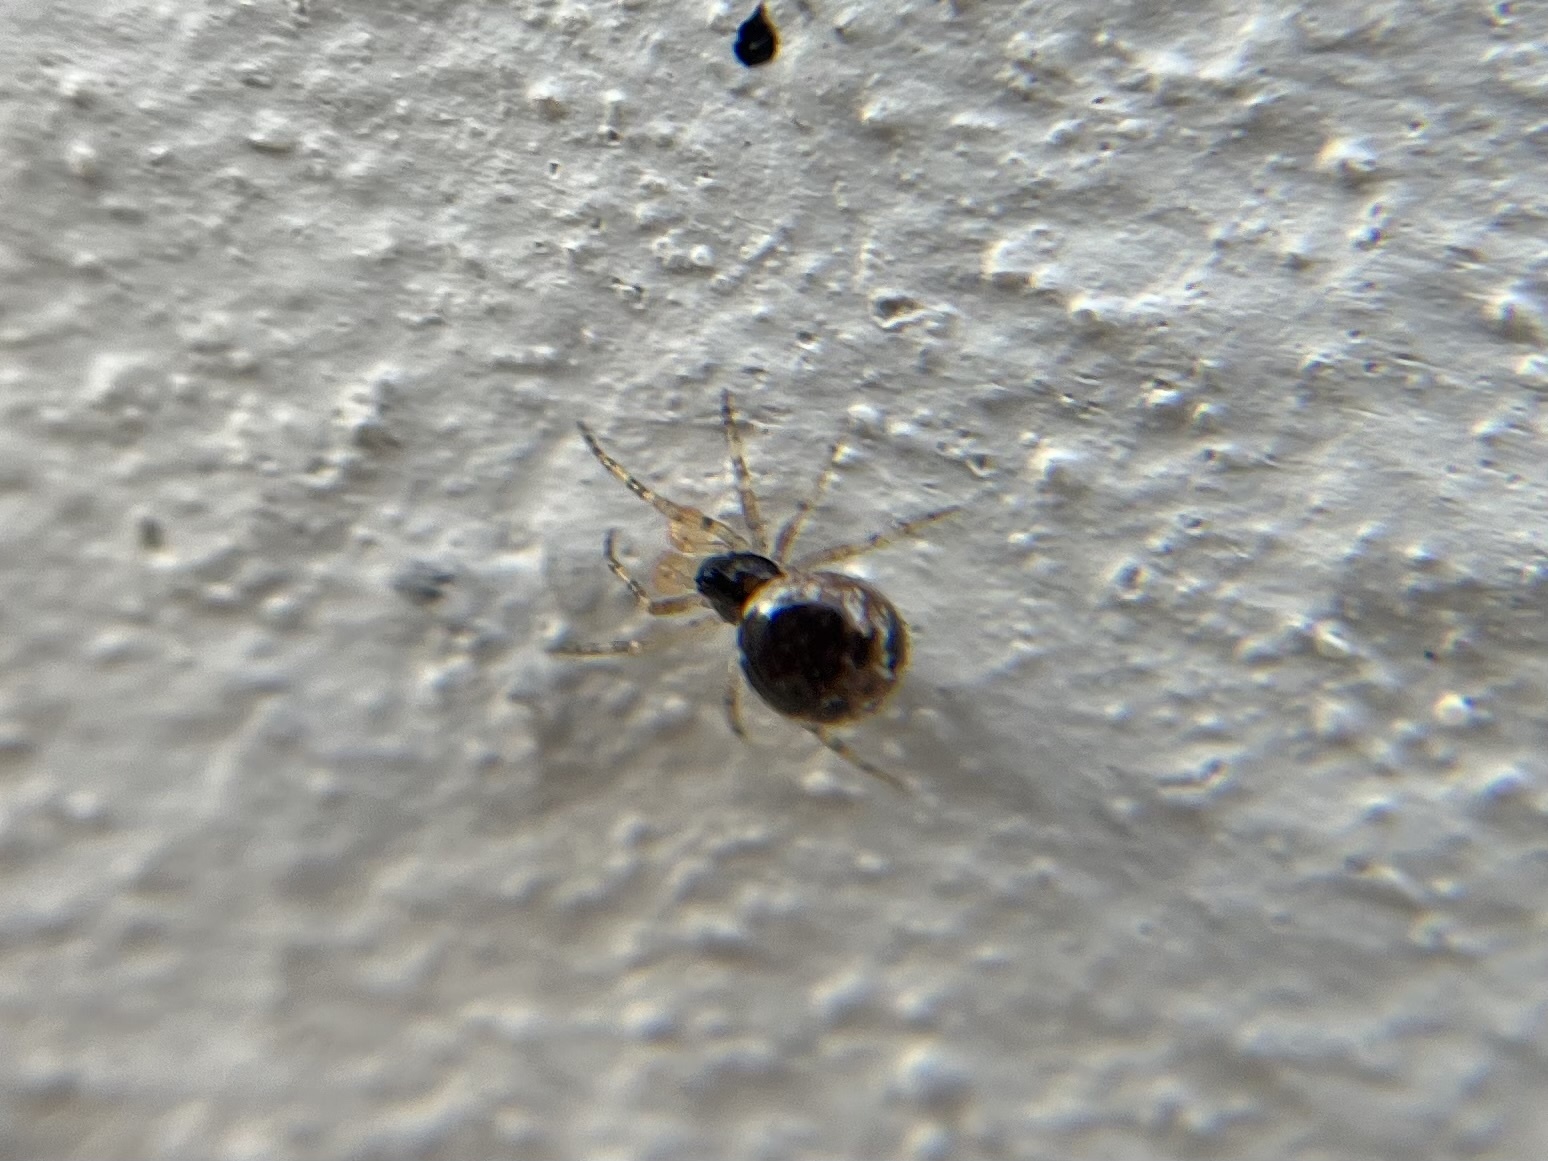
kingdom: Animalia
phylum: Arthropoda
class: Arachnida
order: Araneae
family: Theridiidae
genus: Sardinidion
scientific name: Sardinidion blackwalli
